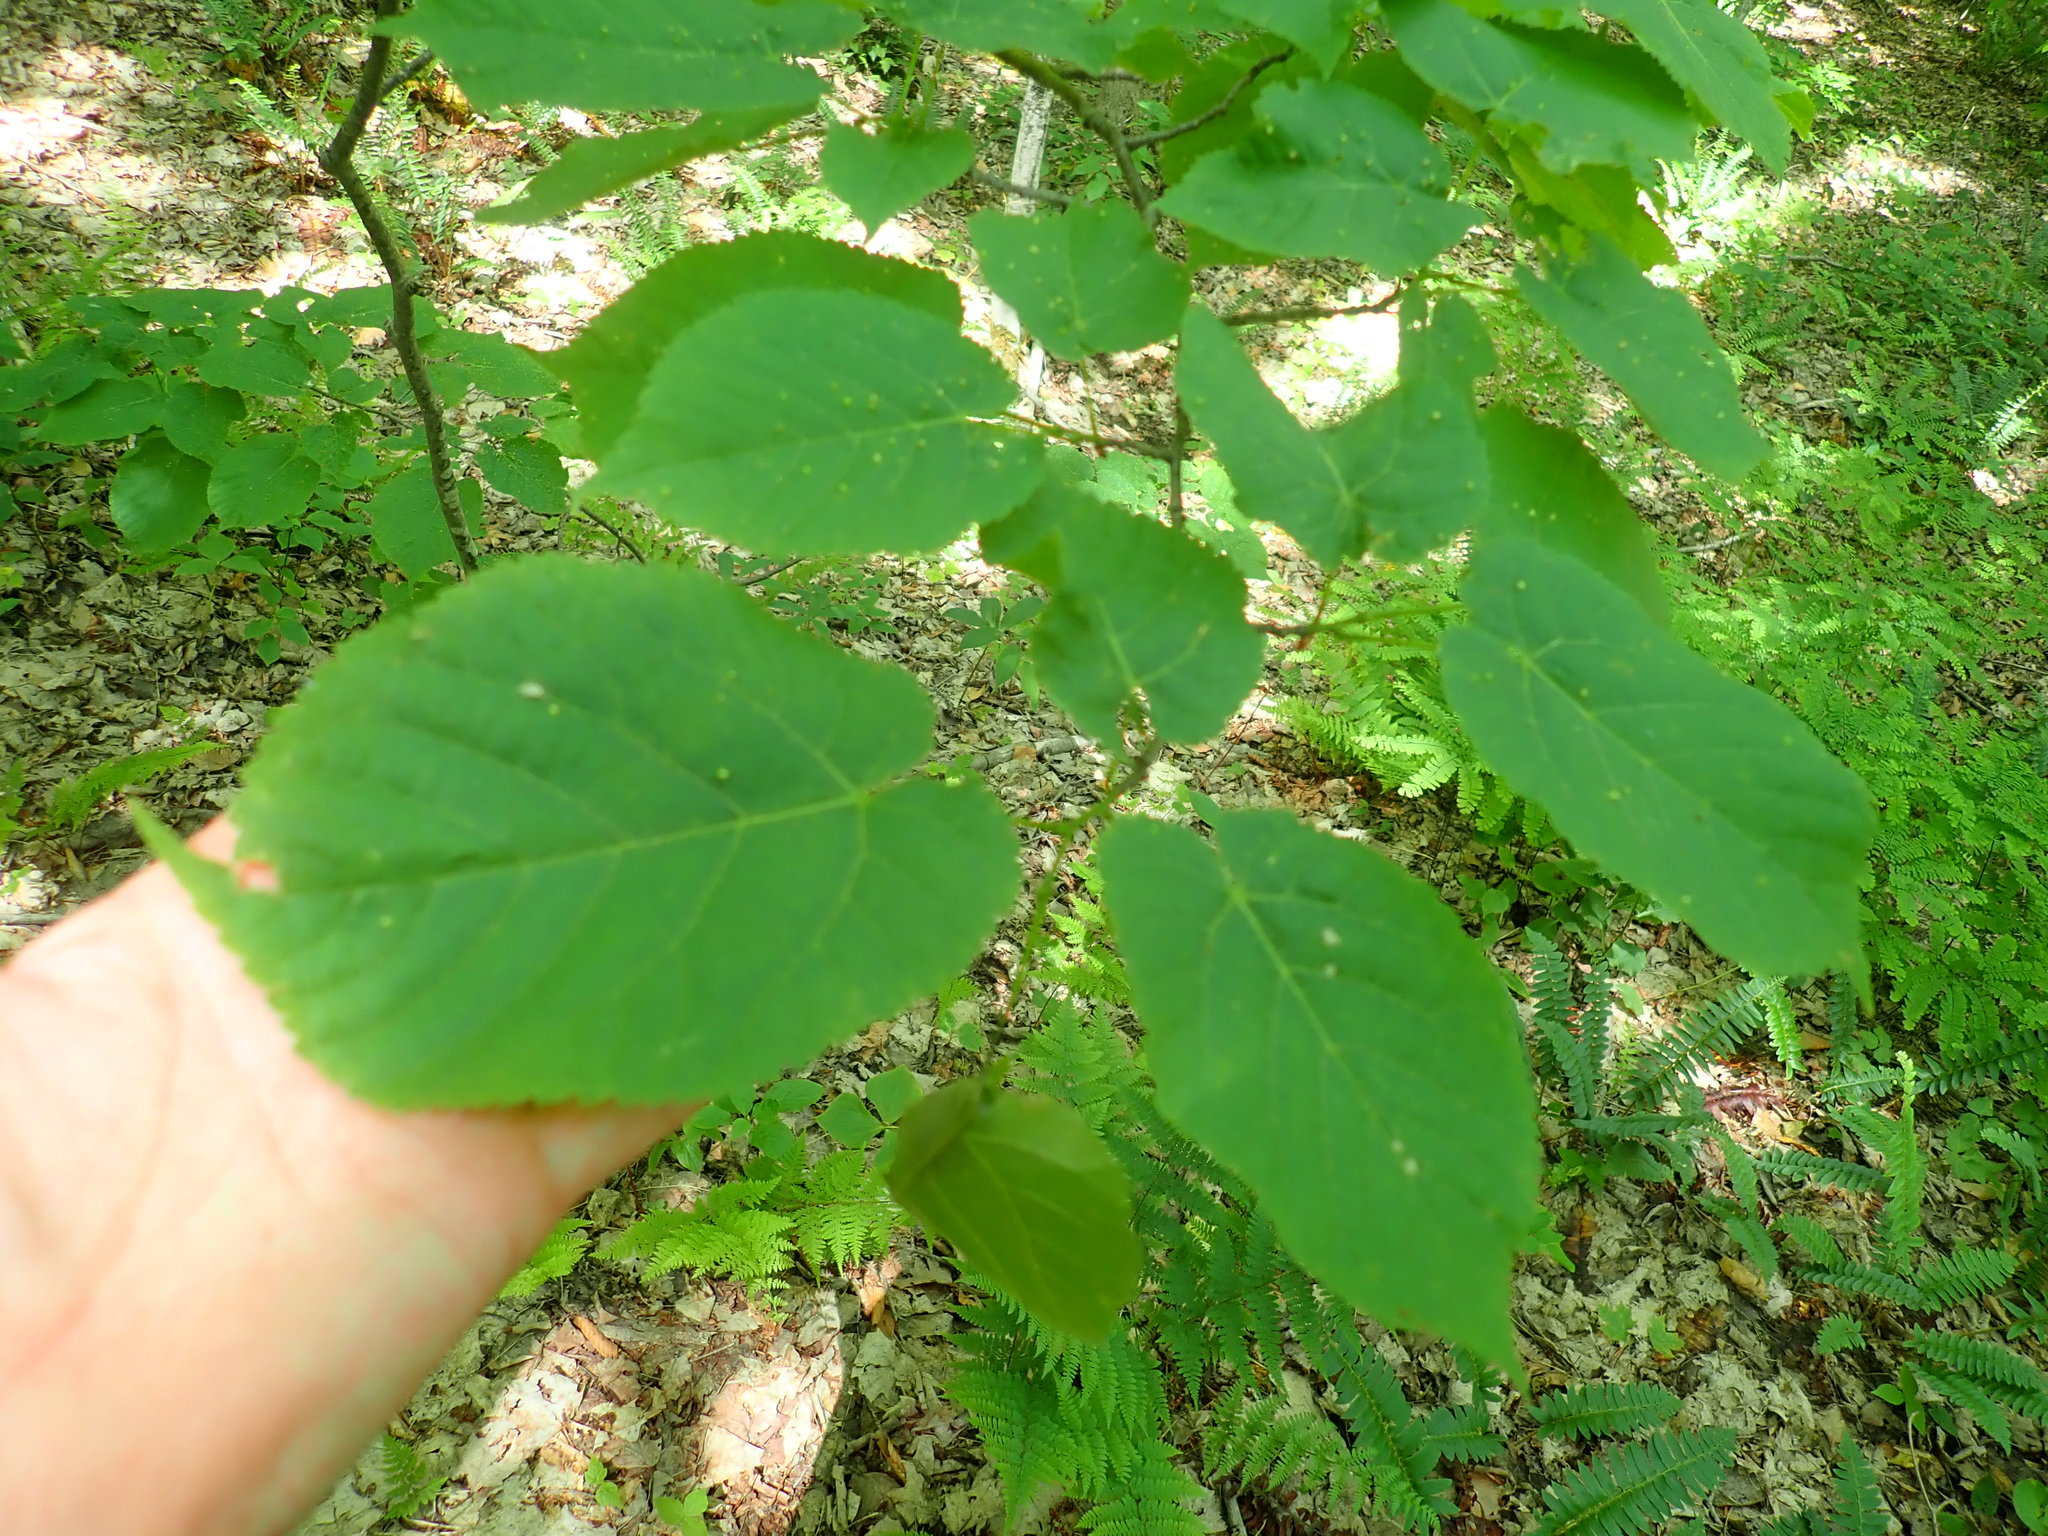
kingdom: Plantae
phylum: Tracheophyta
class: Magnoliopsida
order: Malvales
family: Malvaceae
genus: Tilia
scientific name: Tilia americana
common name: Basswood
